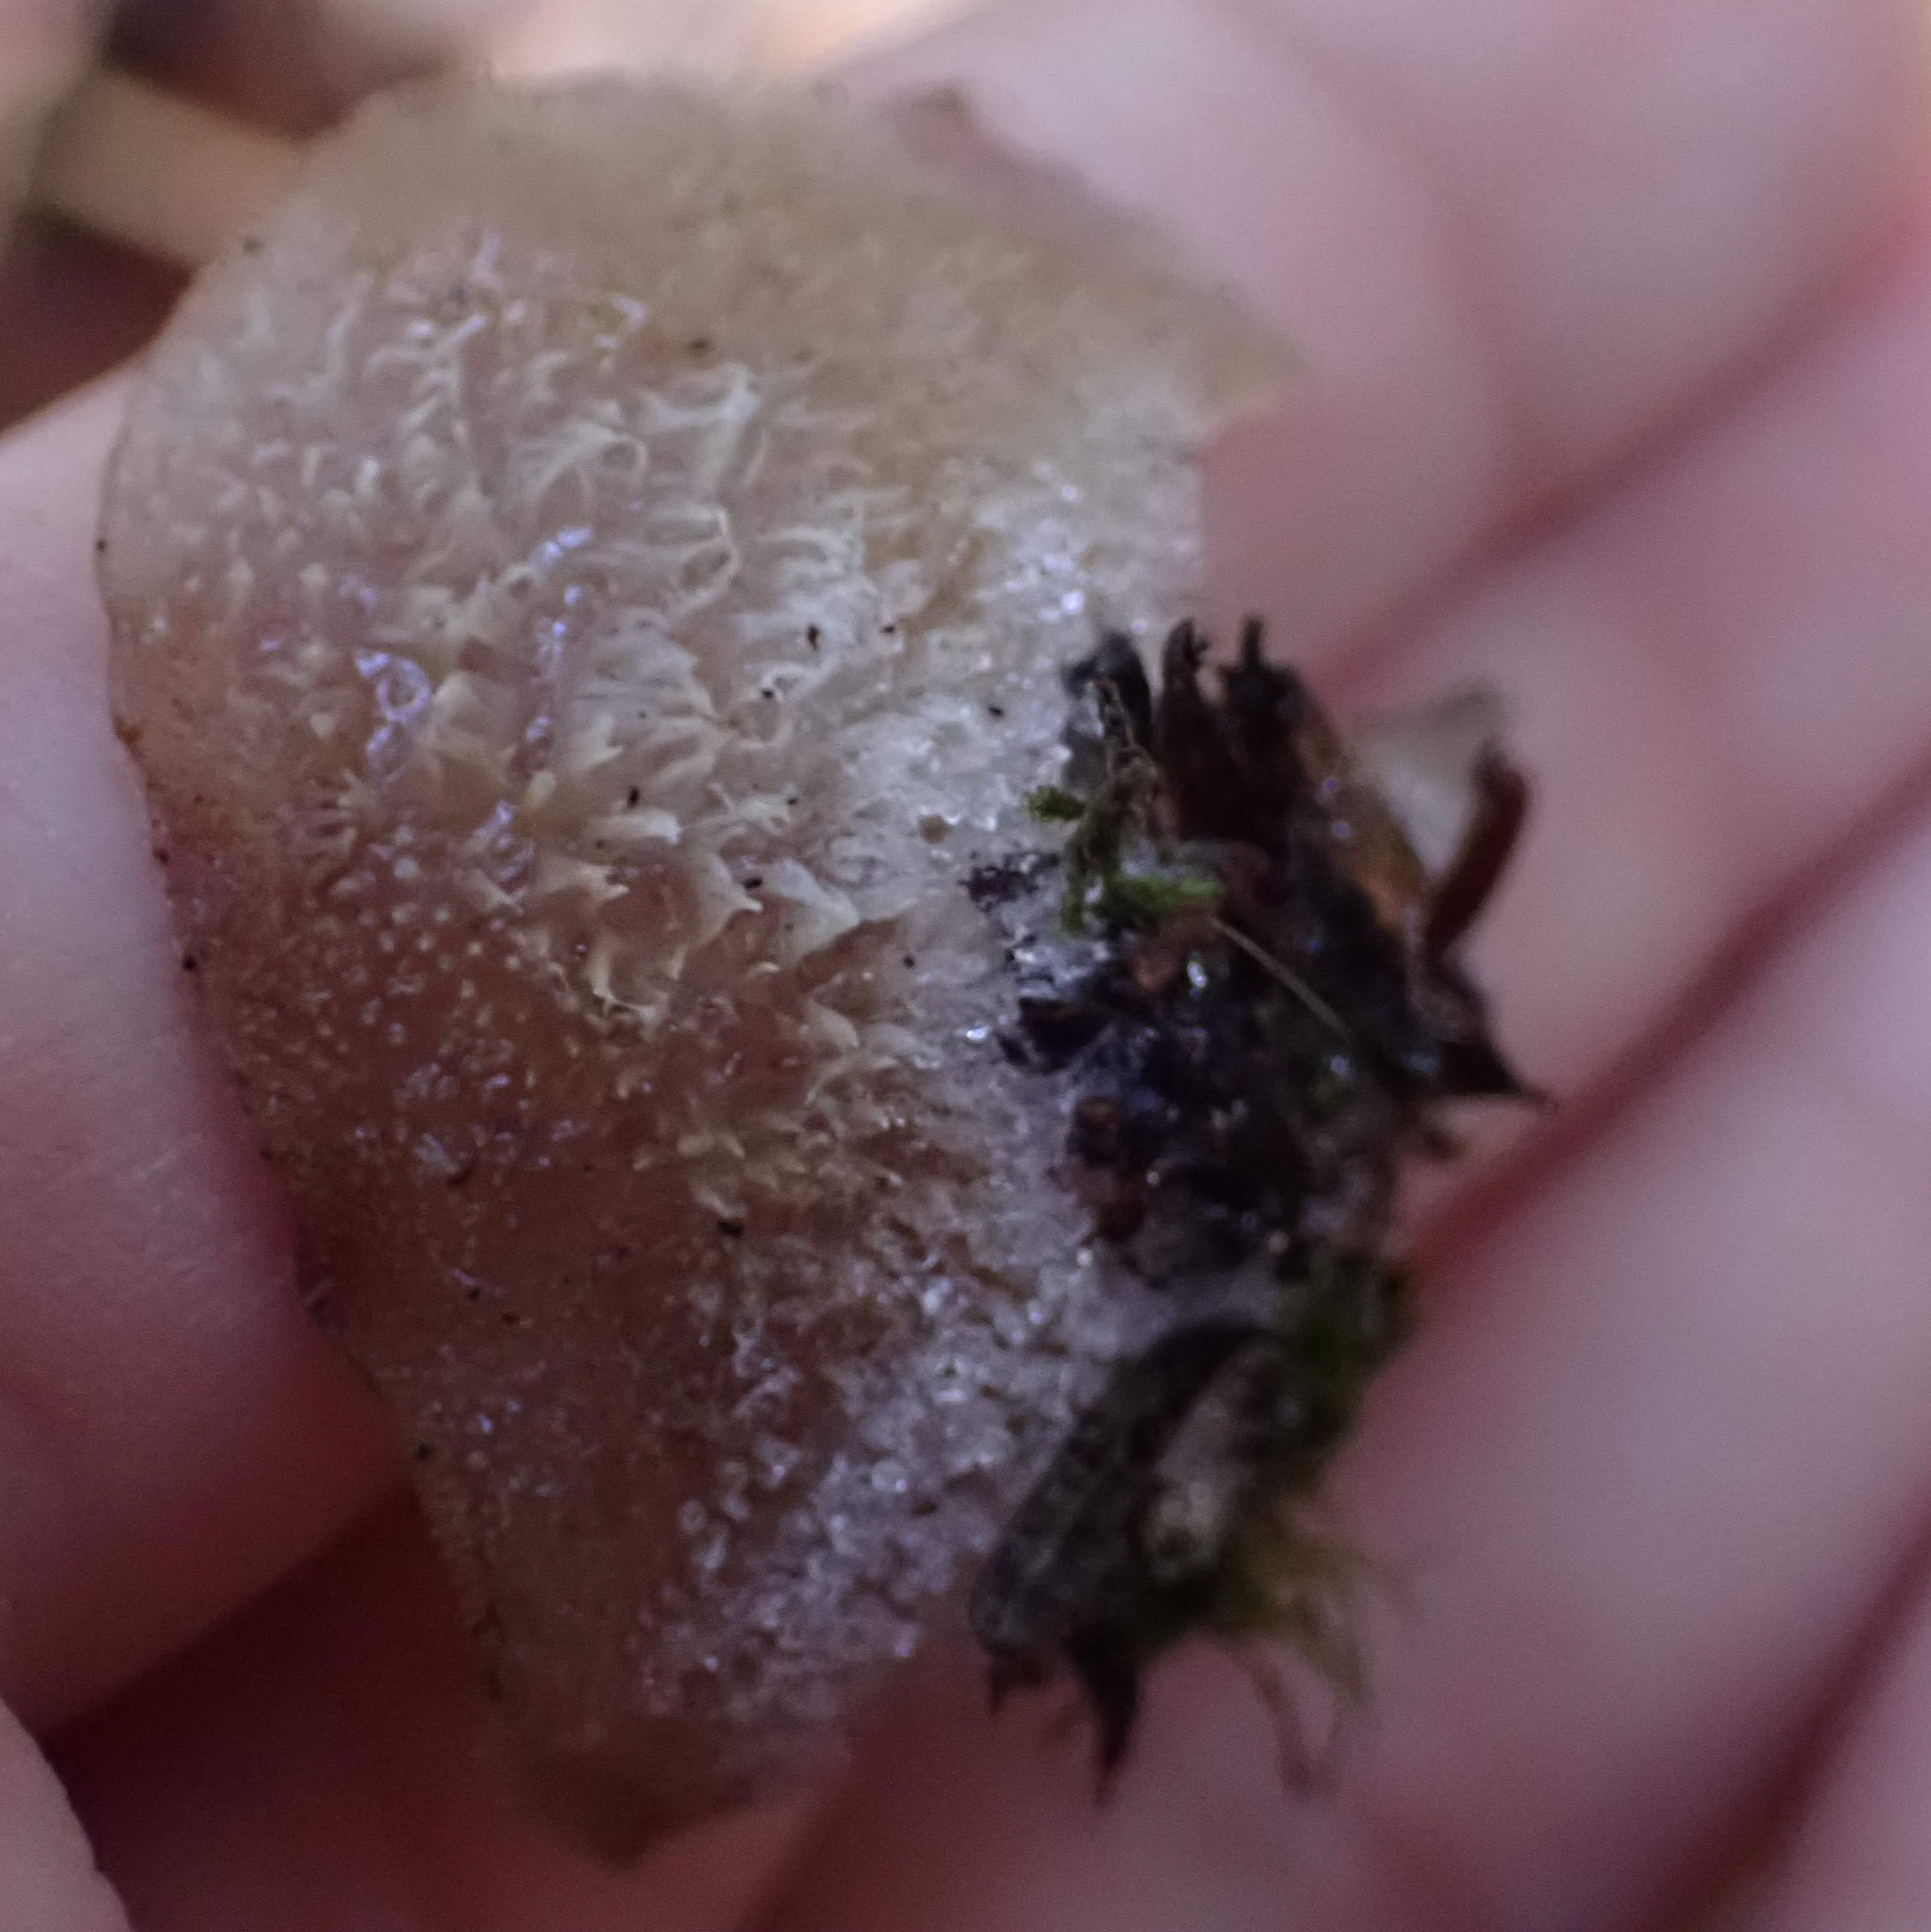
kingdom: Fungi
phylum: Basidiomycota
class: Agaricomycetes
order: Auriculariales
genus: Pseudohydnum
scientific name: Pseudohydnum gelatinosum
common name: Jelly tongue
